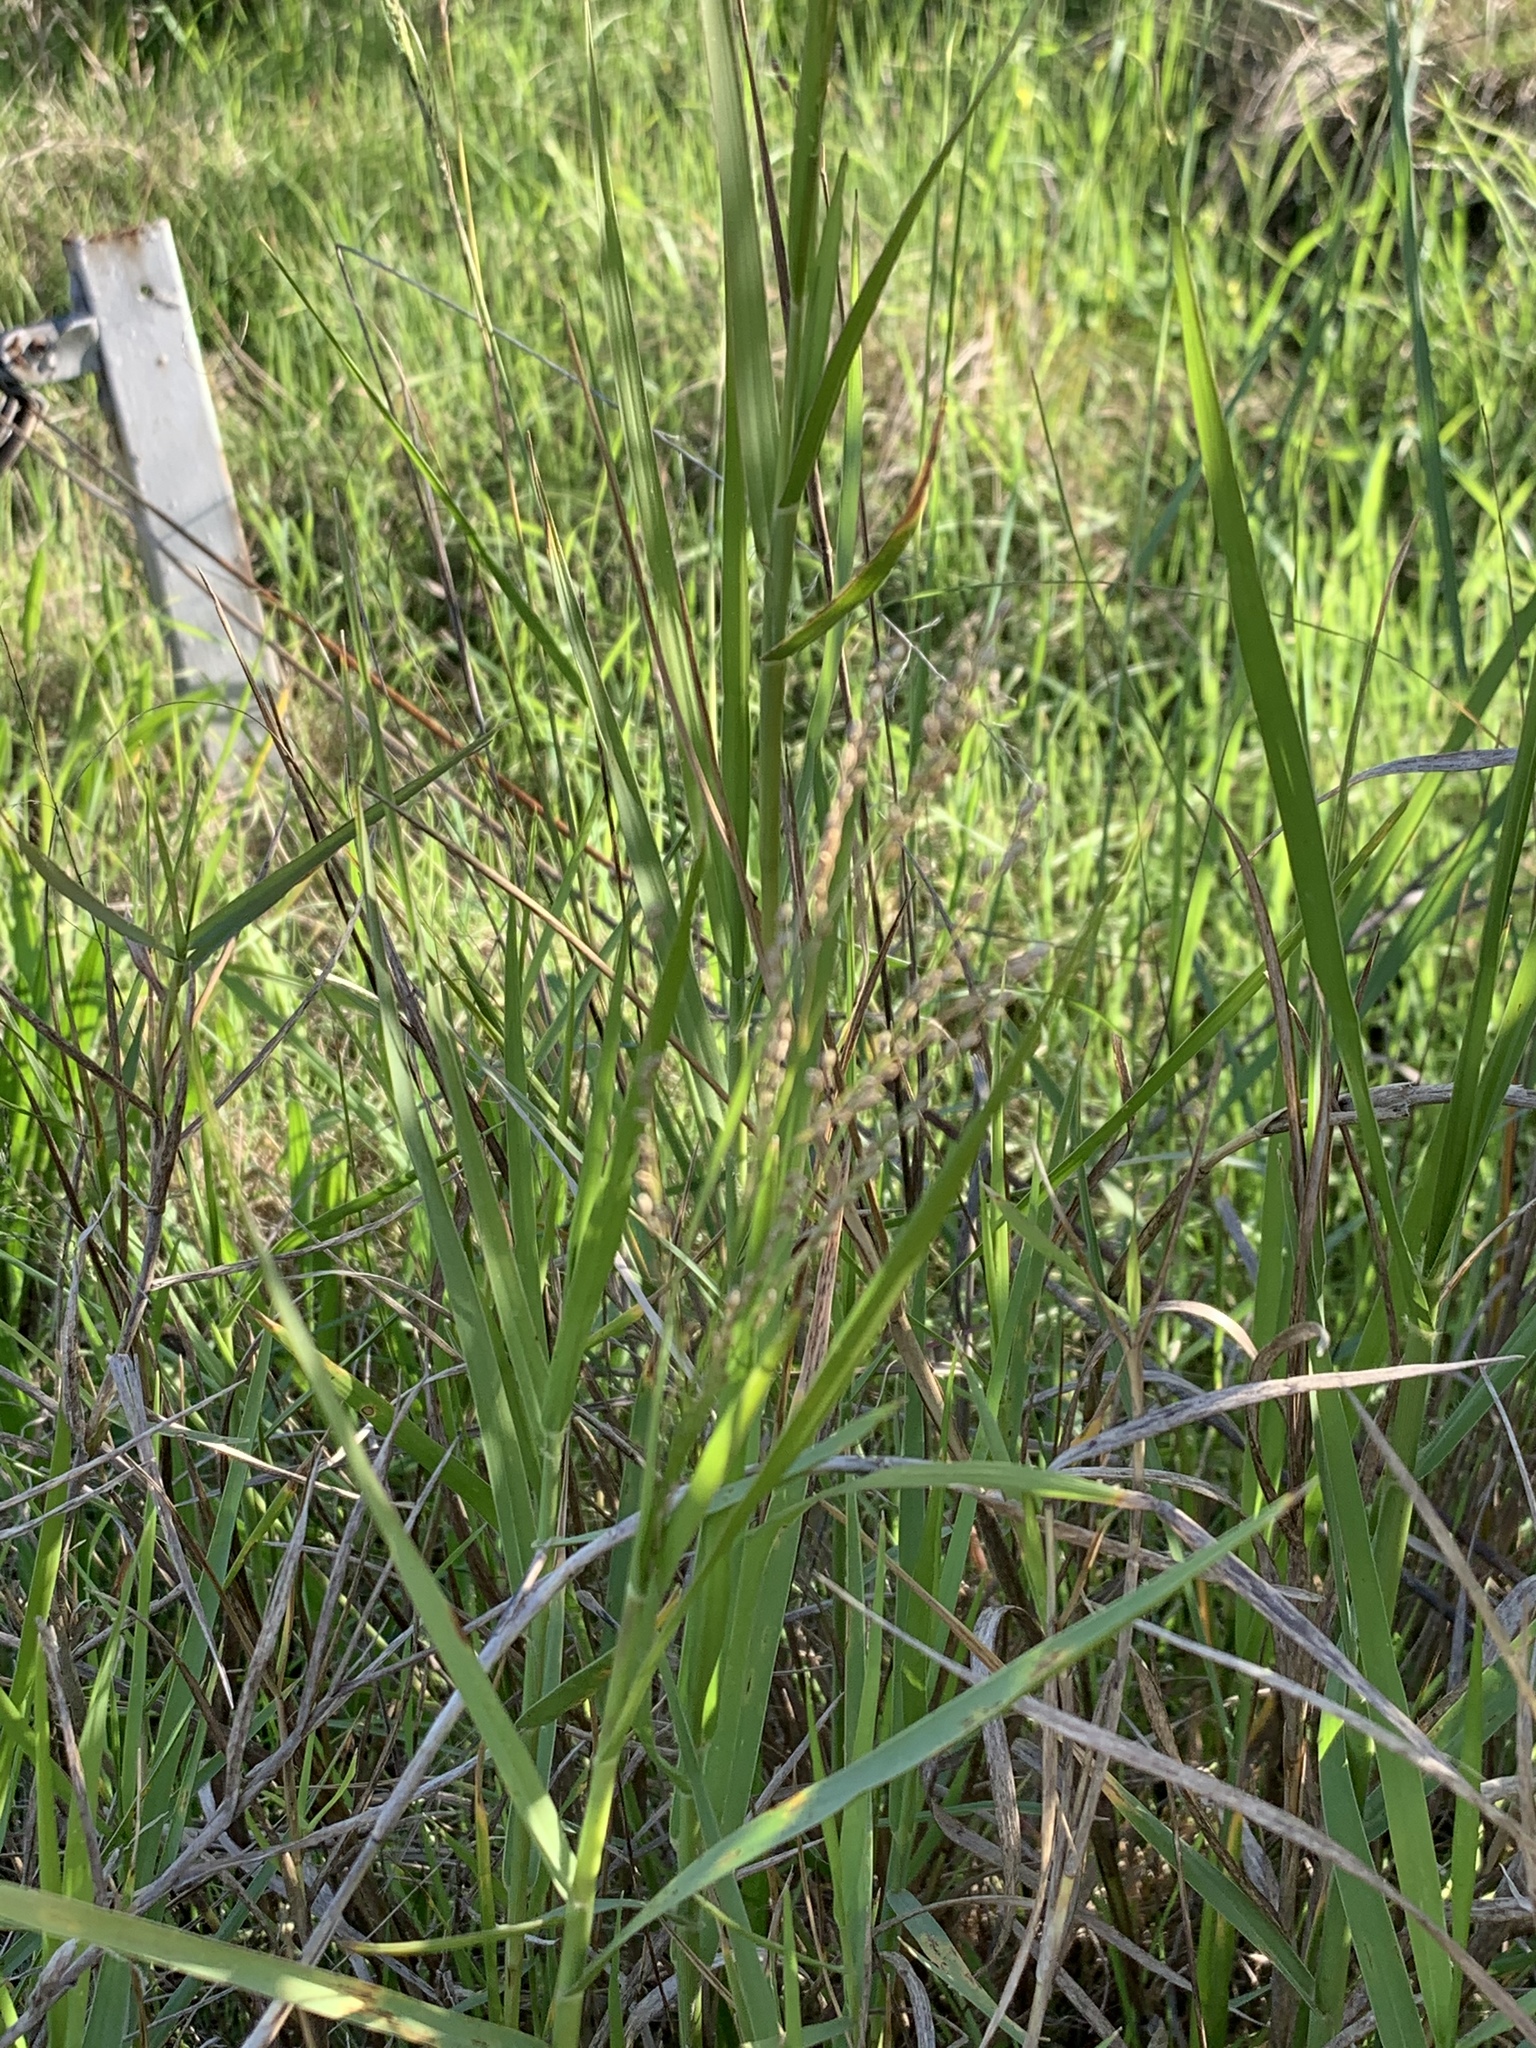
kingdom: Plantae
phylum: Tracheophyta
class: Liliopsida
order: Poales
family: Poaceae
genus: Megathyrsus
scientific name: Megathyrsus maximus
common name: Guineagrass
